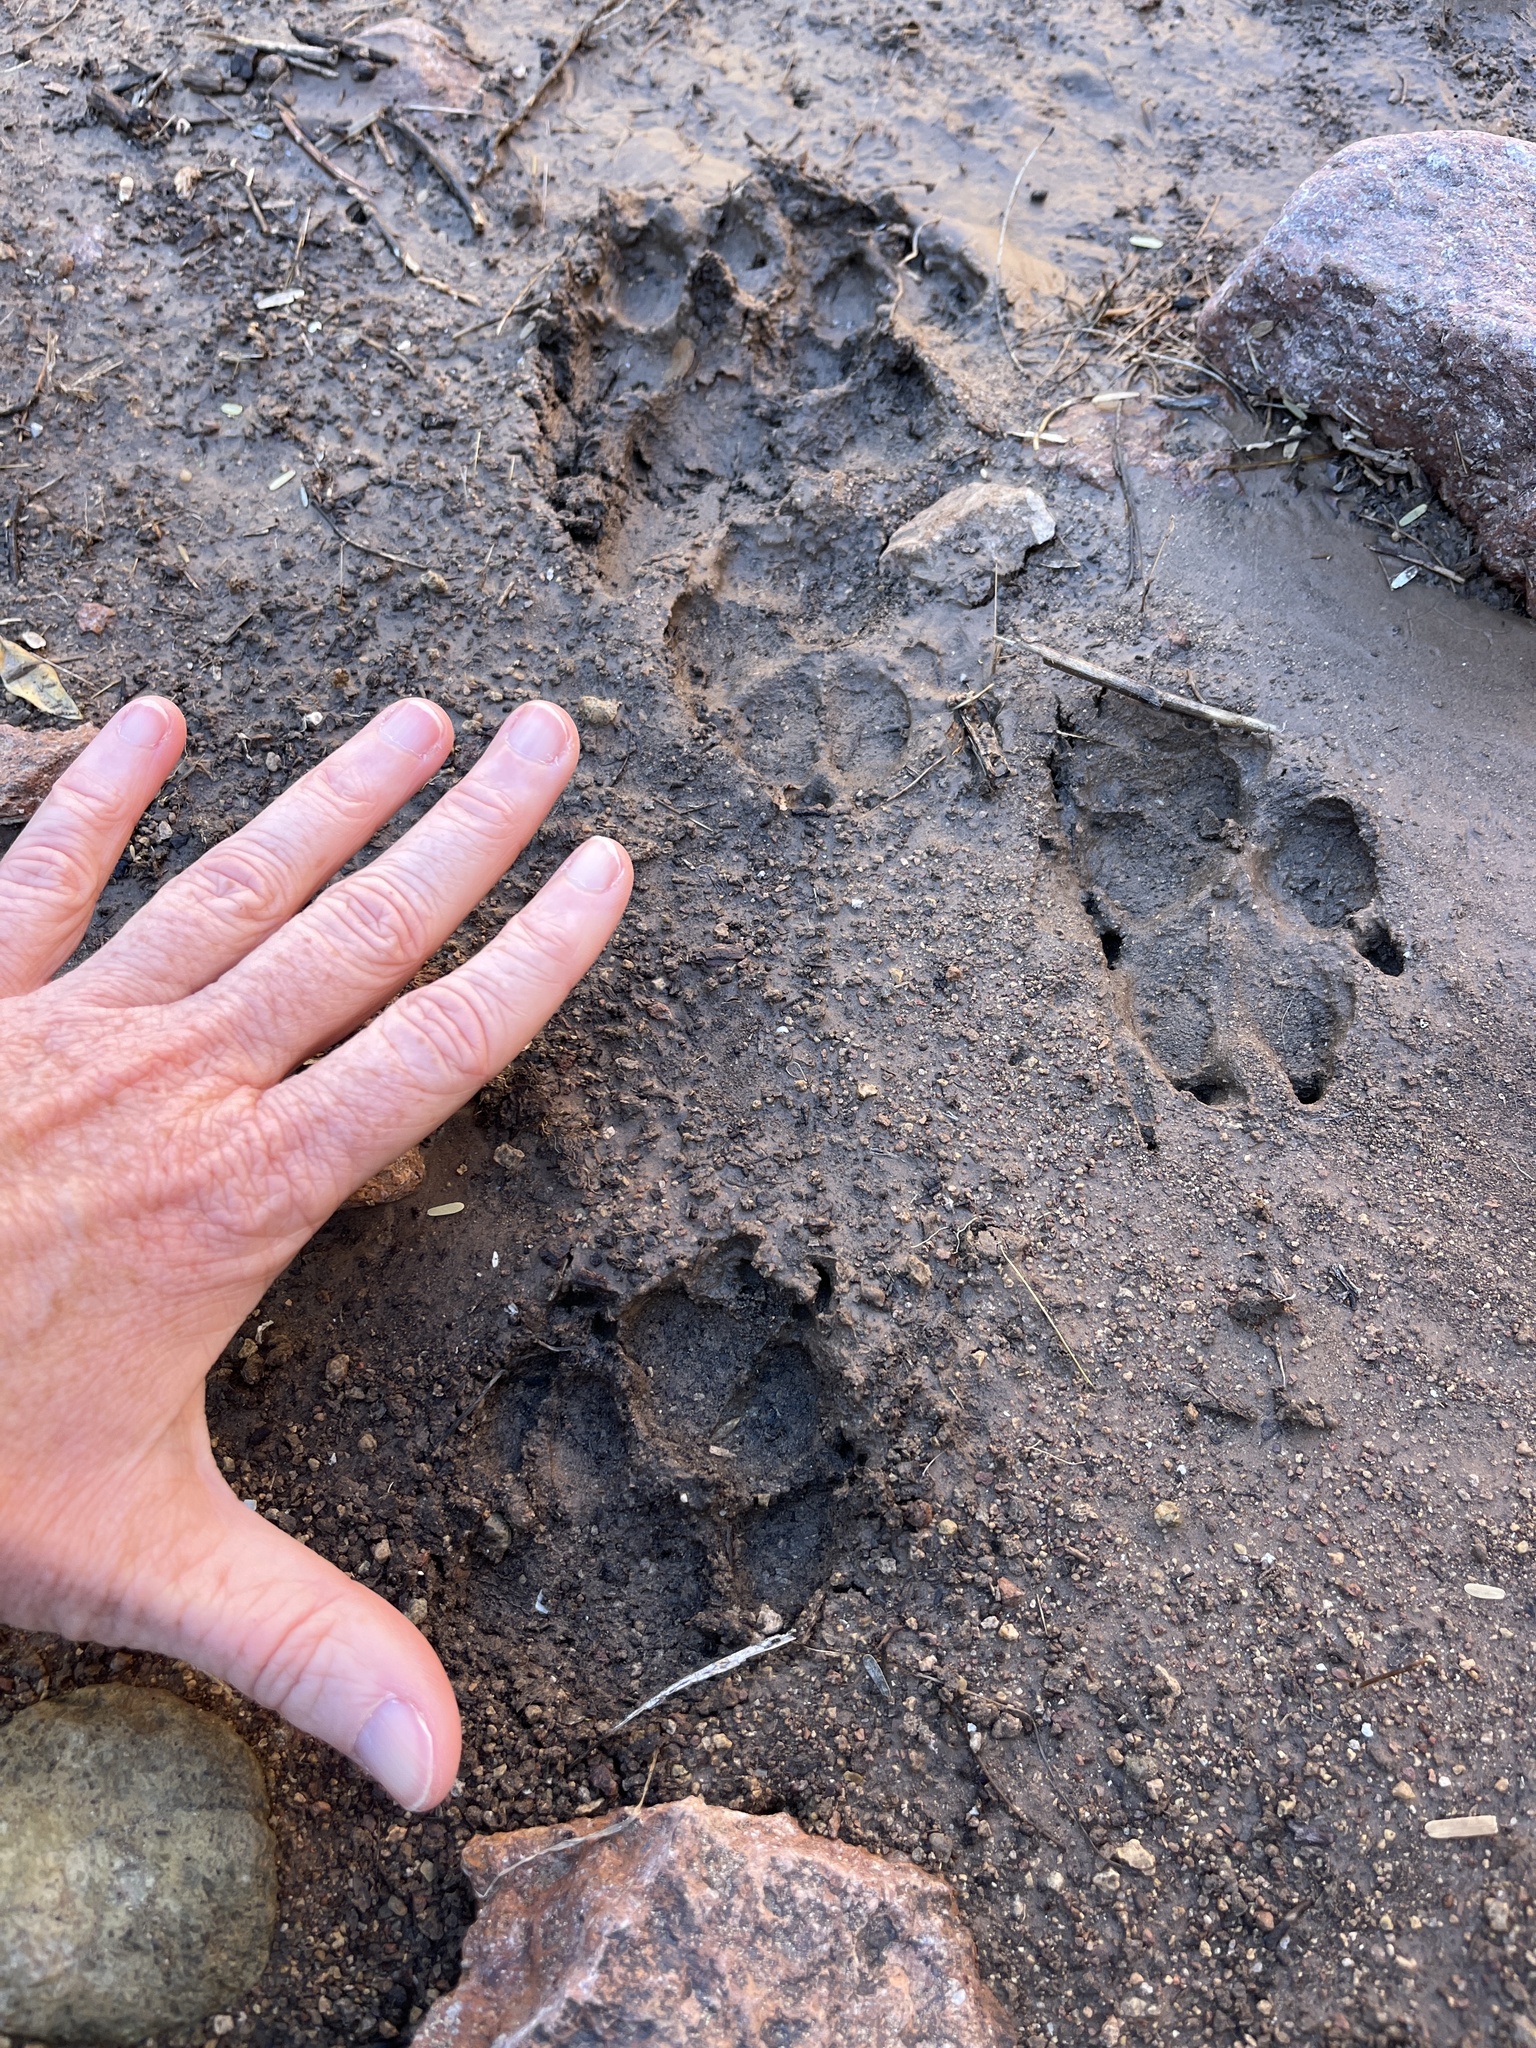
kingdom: Animalia
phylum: Chordata
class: Mammalia
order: Carnivora
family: Canidae
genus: Canis
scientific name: Canis latrans
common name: Coyote
